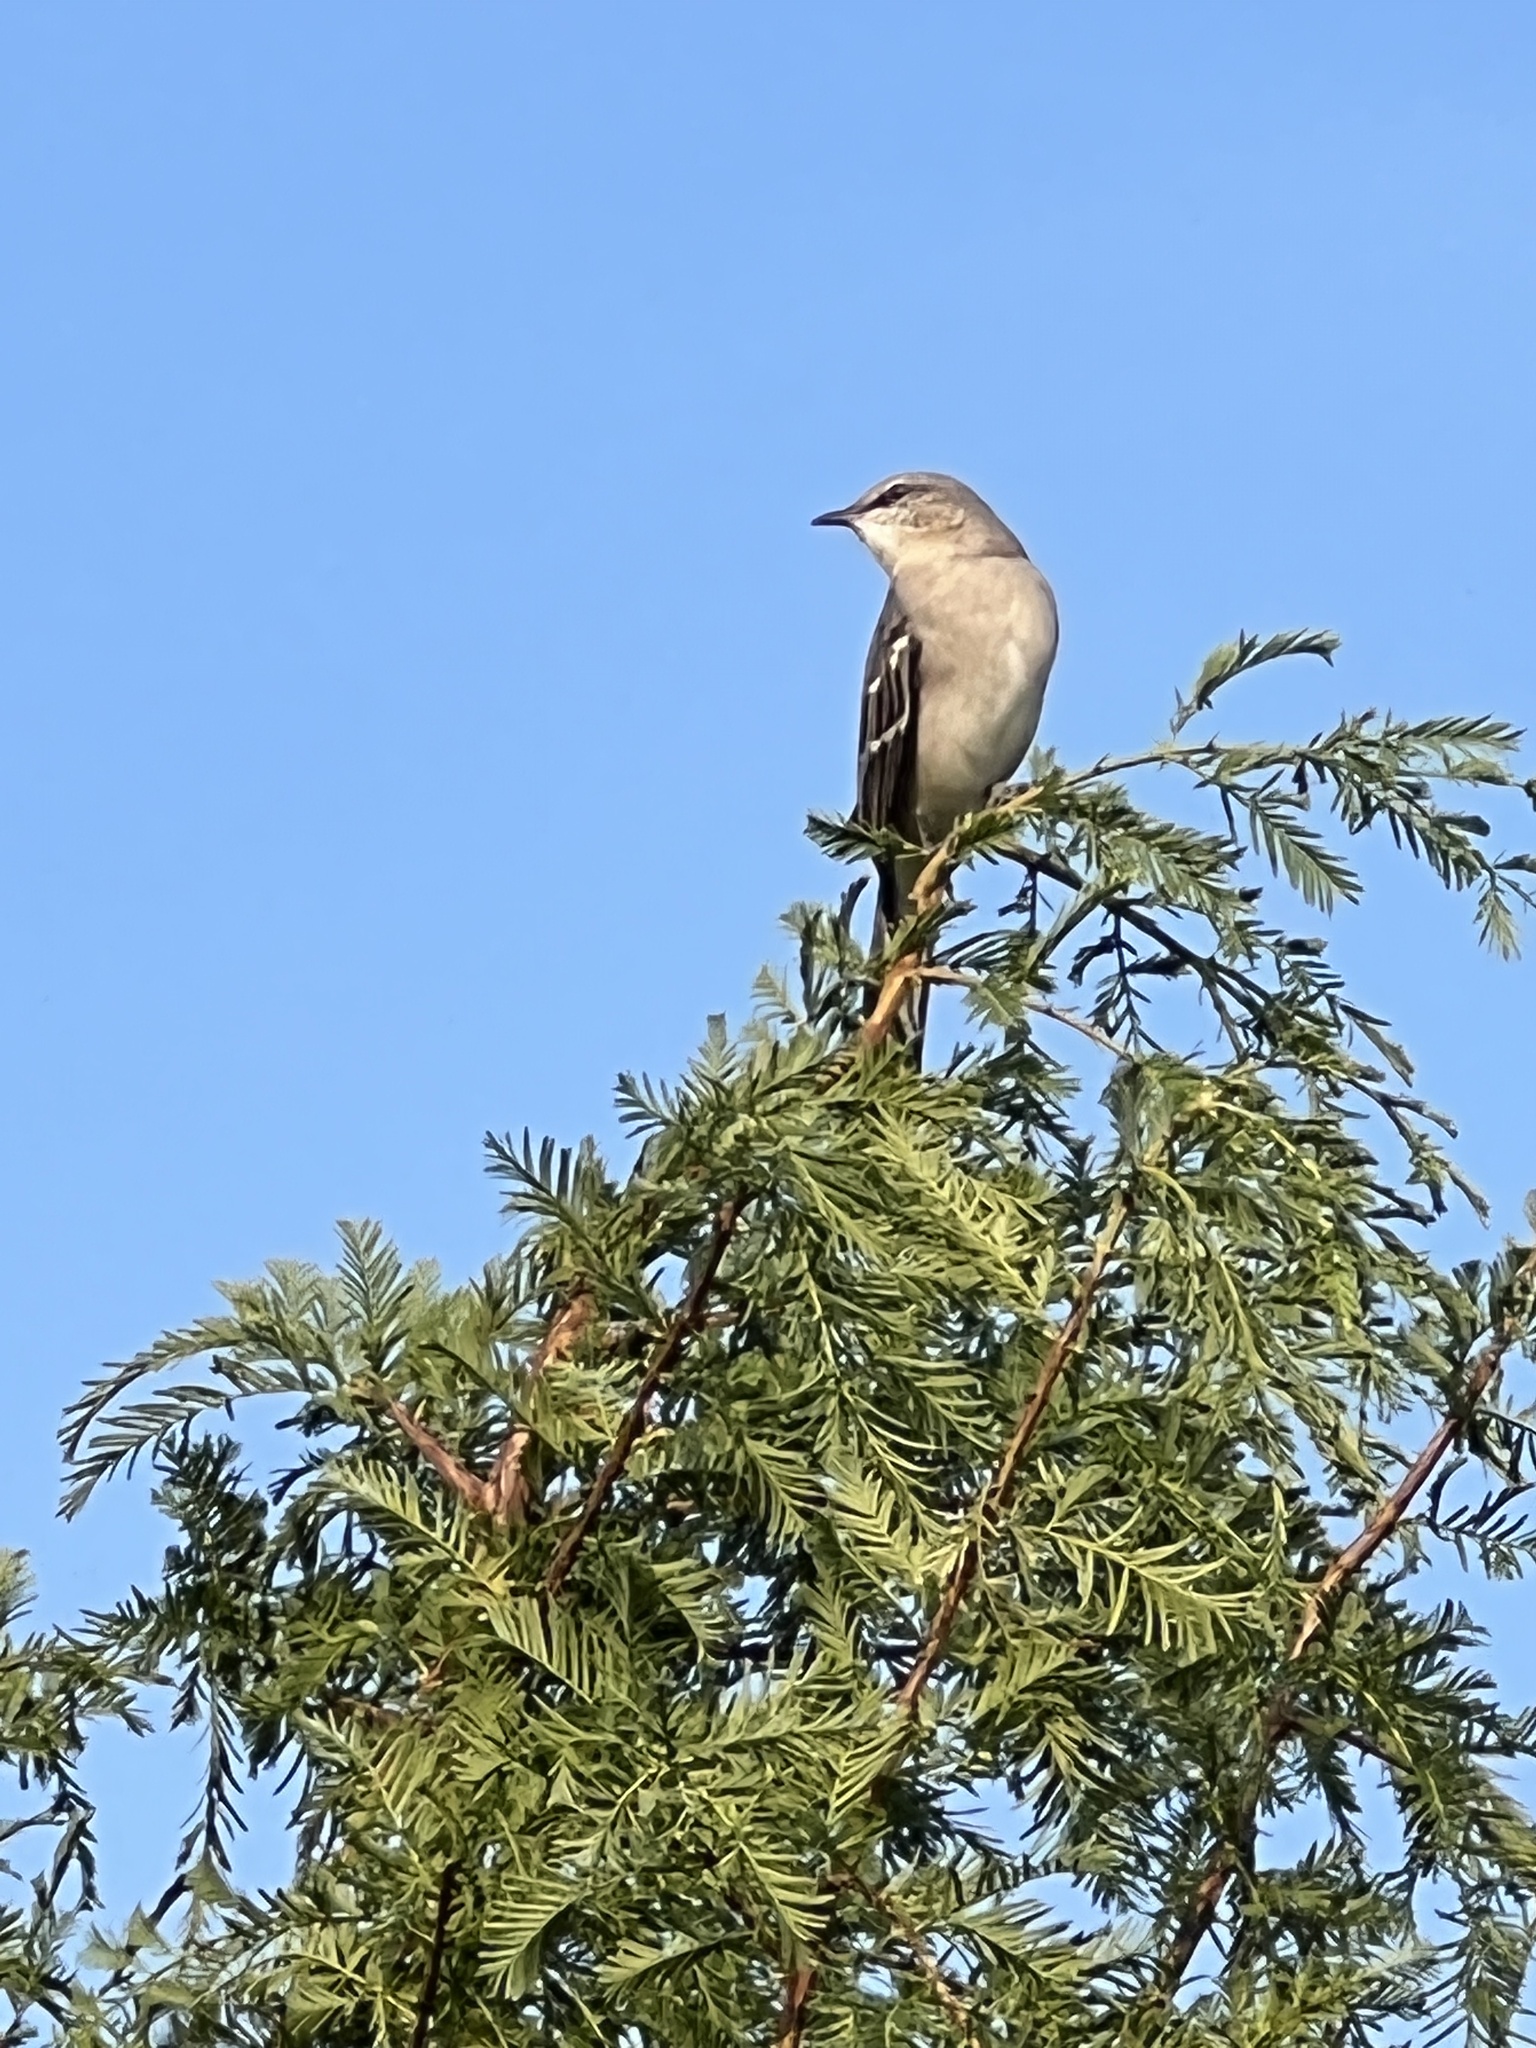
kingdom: Animalia
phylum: Chordata
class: Aves
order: Passeriformes
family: Mimidae
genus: Mimus
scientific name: Mimus polyglottos
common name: Northern mockingbird
